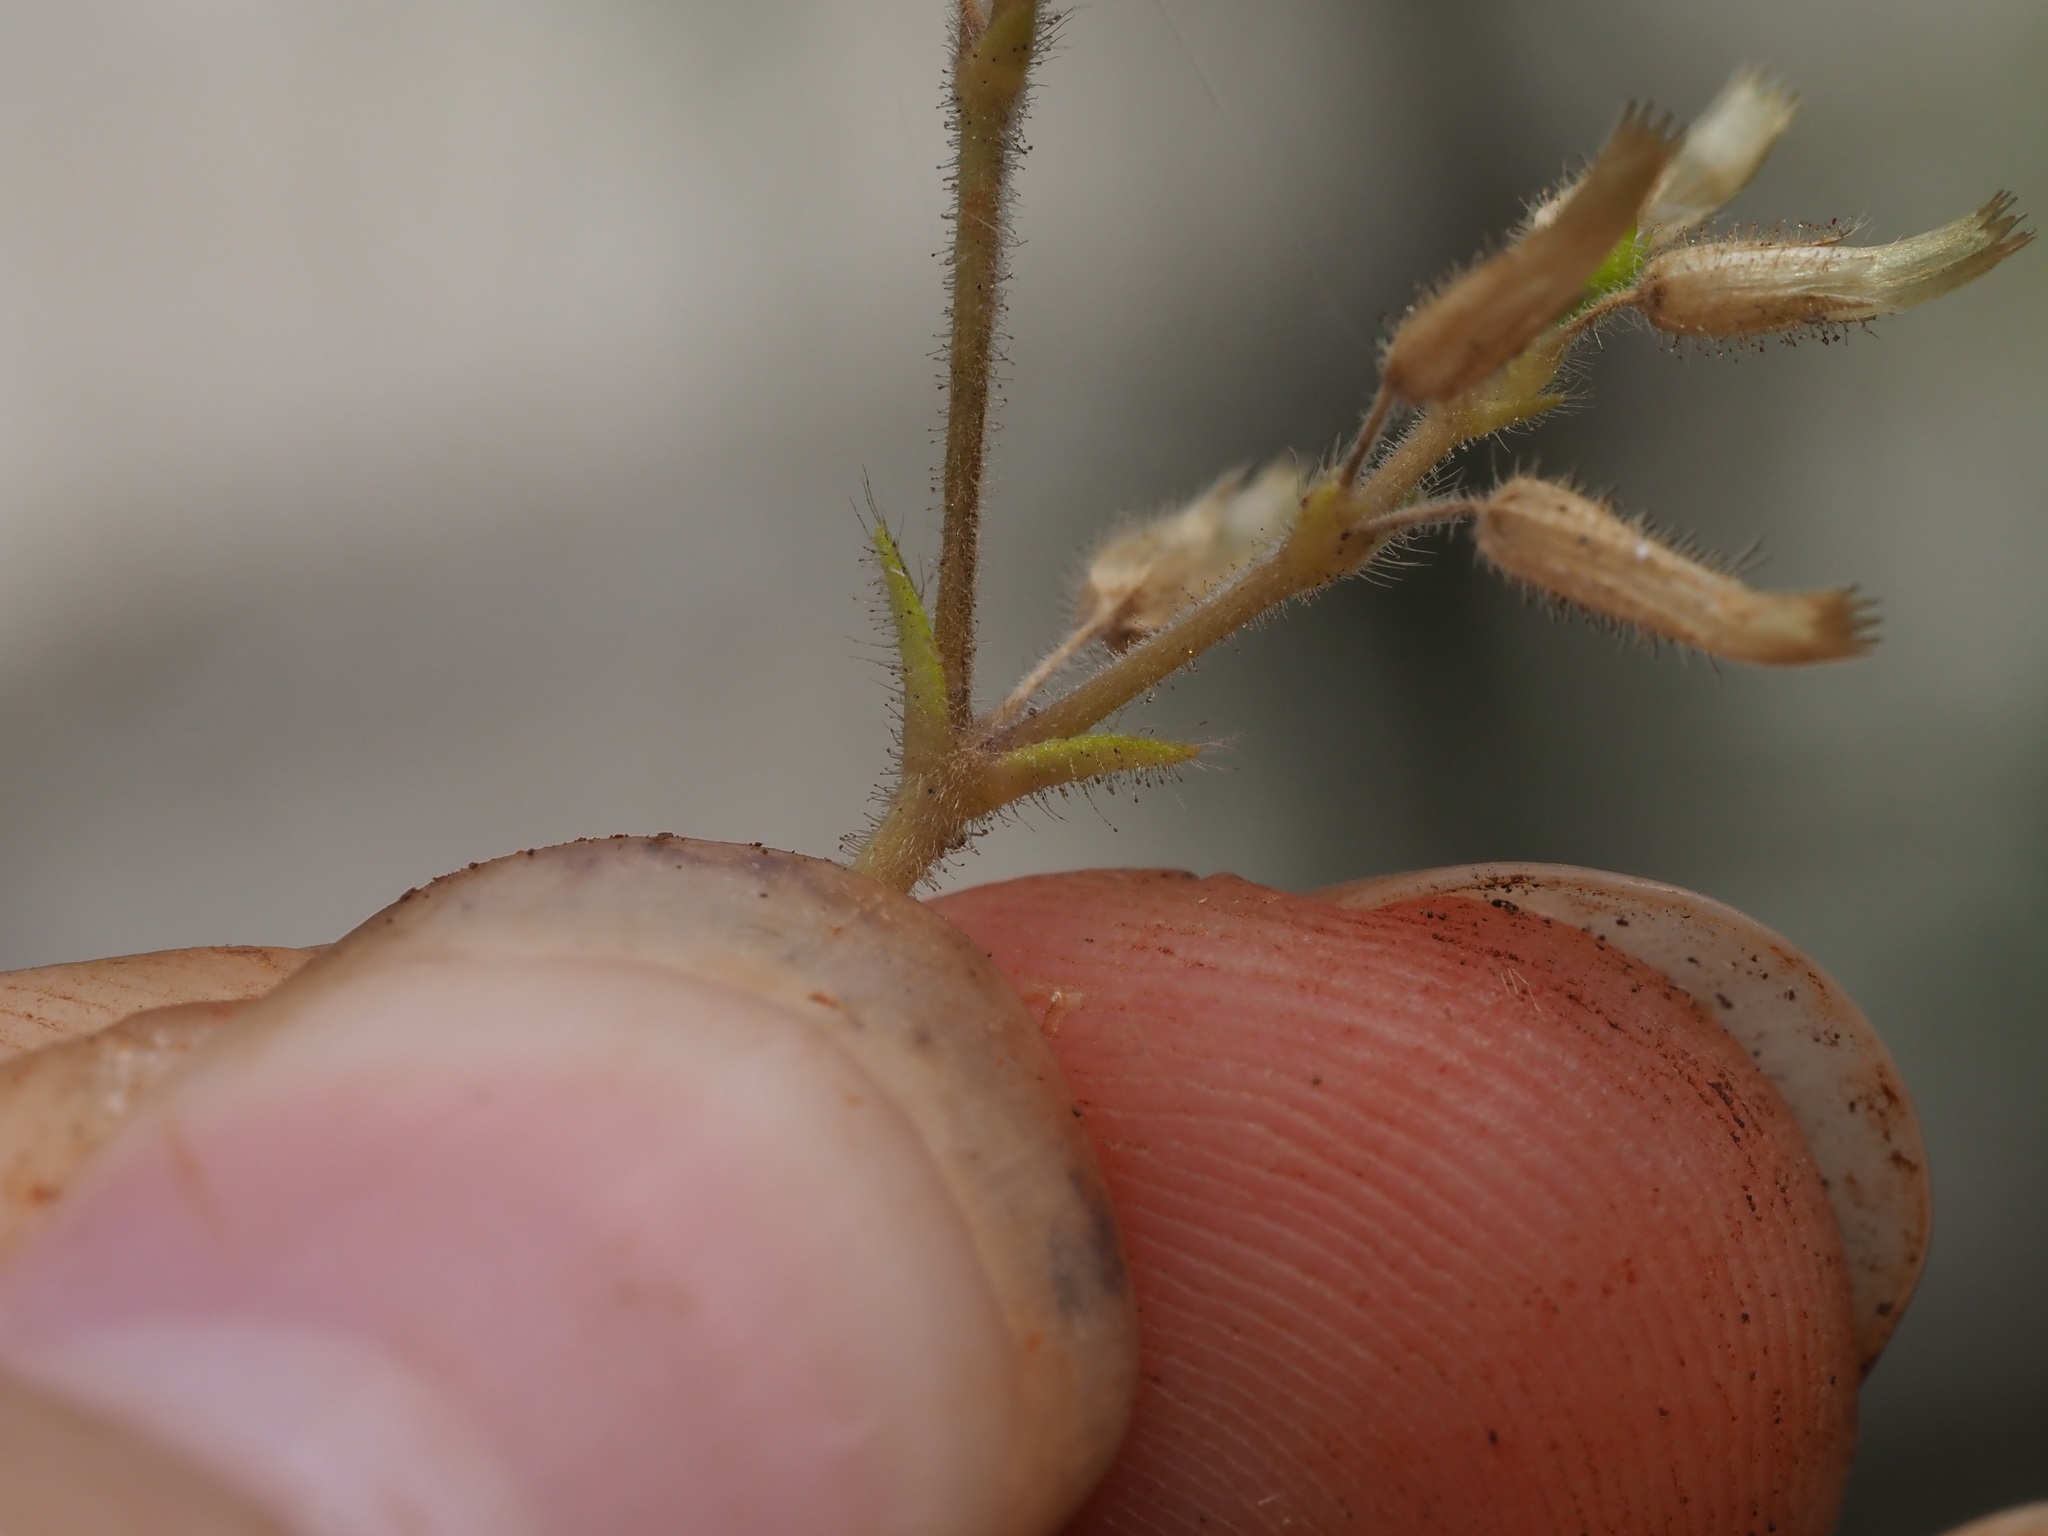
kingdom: Plantae
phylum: Tracheophyta
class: Magnoliopsida
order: Caryophyllales
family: Caryophyllaceae
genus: Cerastium
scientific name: Cerastium glomeratum
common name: Sticky chickweed
